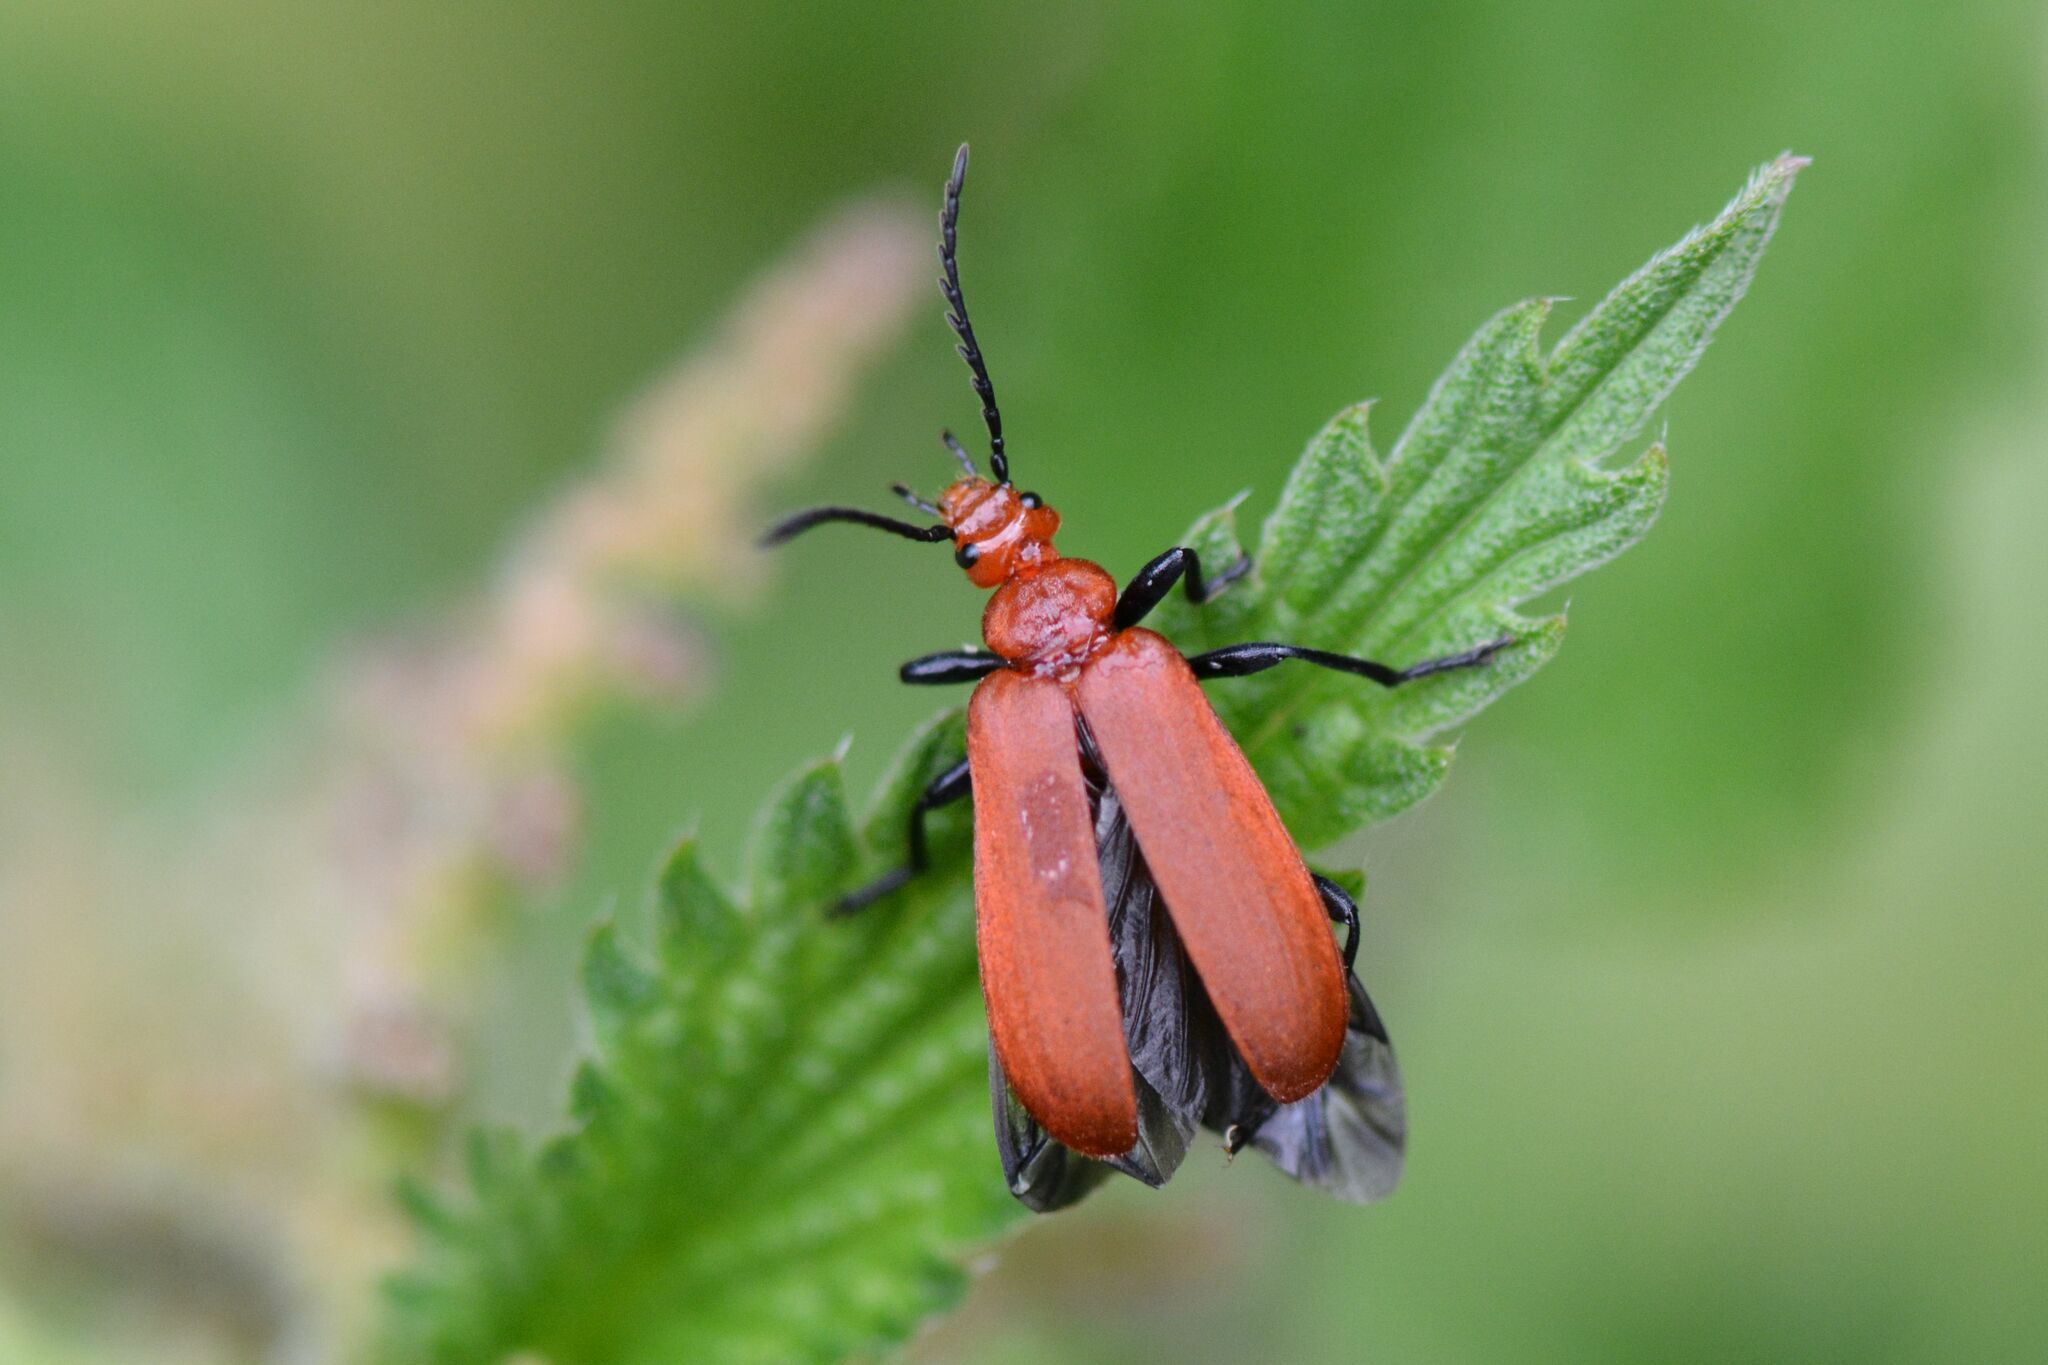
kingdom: Animalia
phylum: Arthropoda
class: Insecta
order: Coleoptera
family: Pyrochroidae
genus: Pyrochroa
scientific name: Pyrochroa serraticornis
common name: Red-headed cardinal beetle
